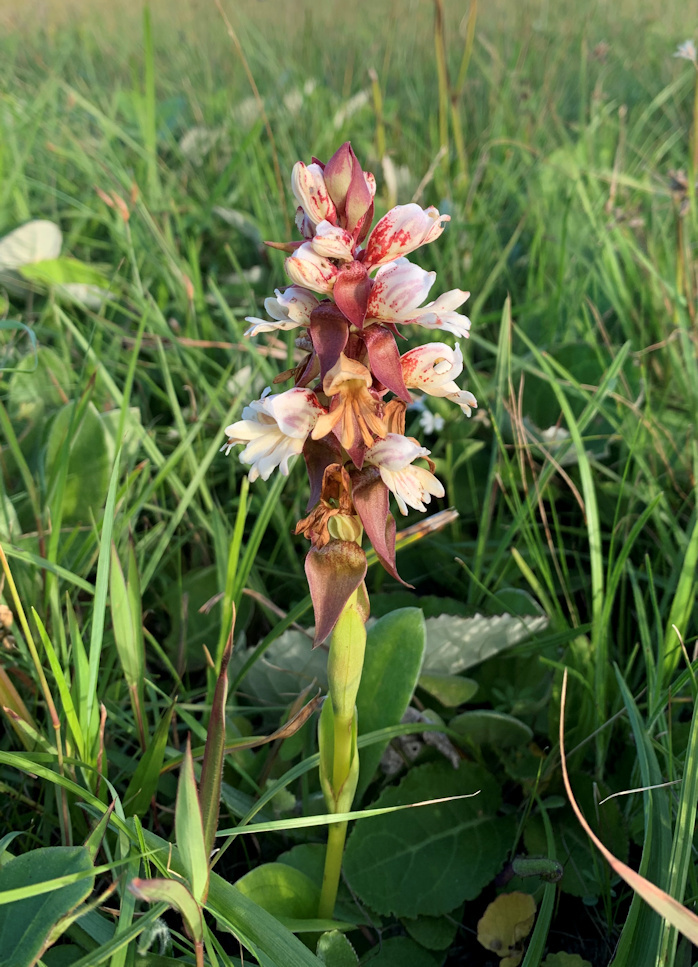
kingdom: Plantae
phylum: Tracheophyta
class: Liliopsida
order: Asparagales
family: Orchidaceae
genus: Satyrium
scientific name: Satyrium sphaerocarpum
